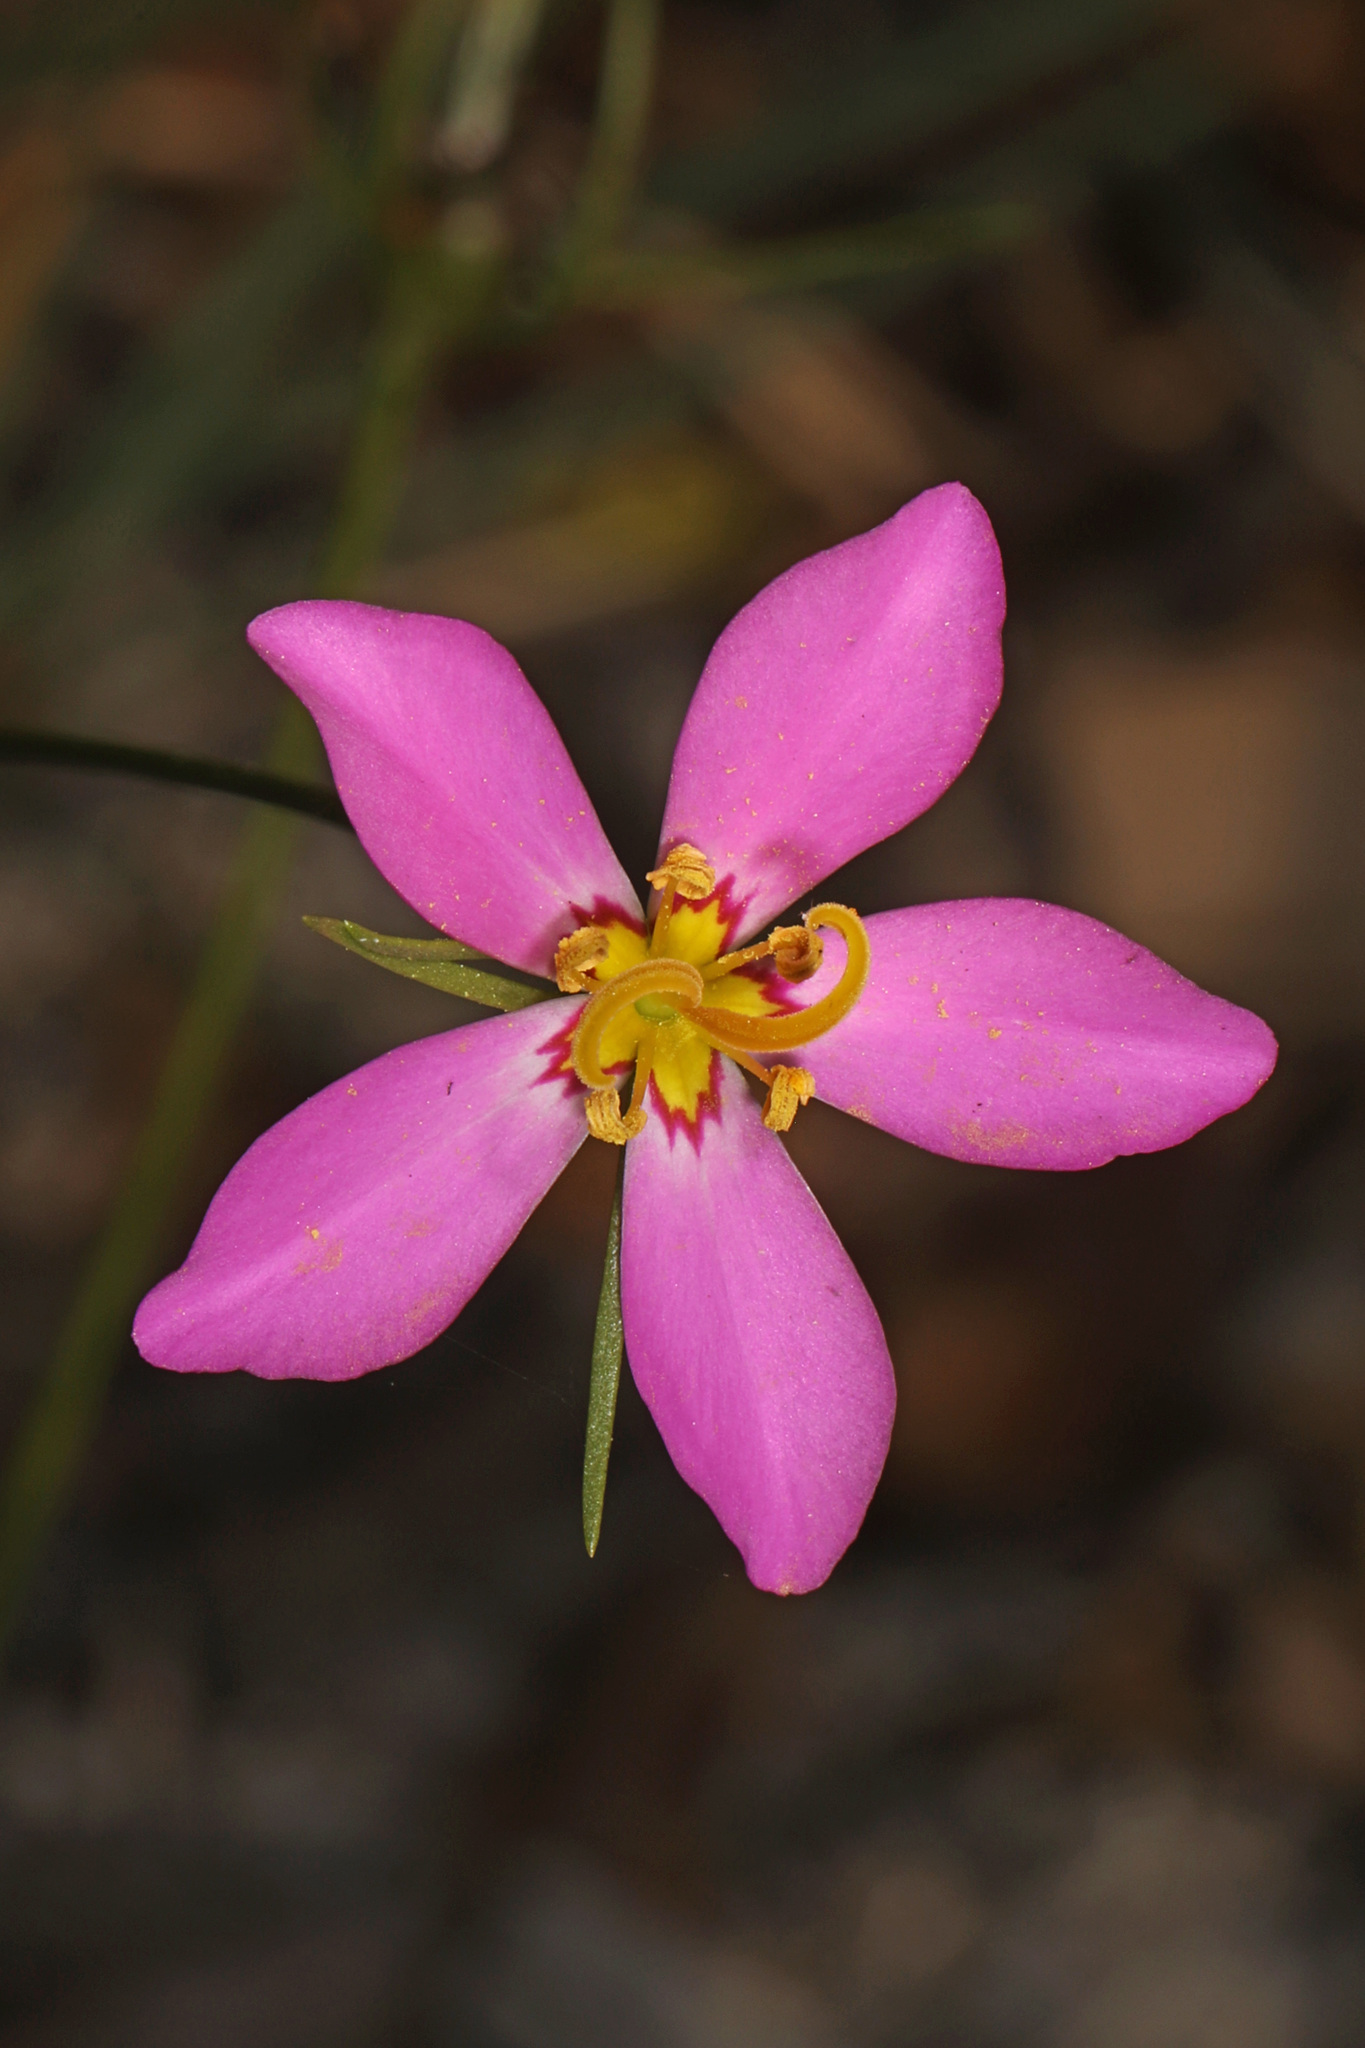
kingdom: Plantae
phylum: Tracheophyta
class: Magnoliopsida
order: Gentianales
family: Gentianaceae
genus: Sabatia
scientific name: Sabatia stellaris
